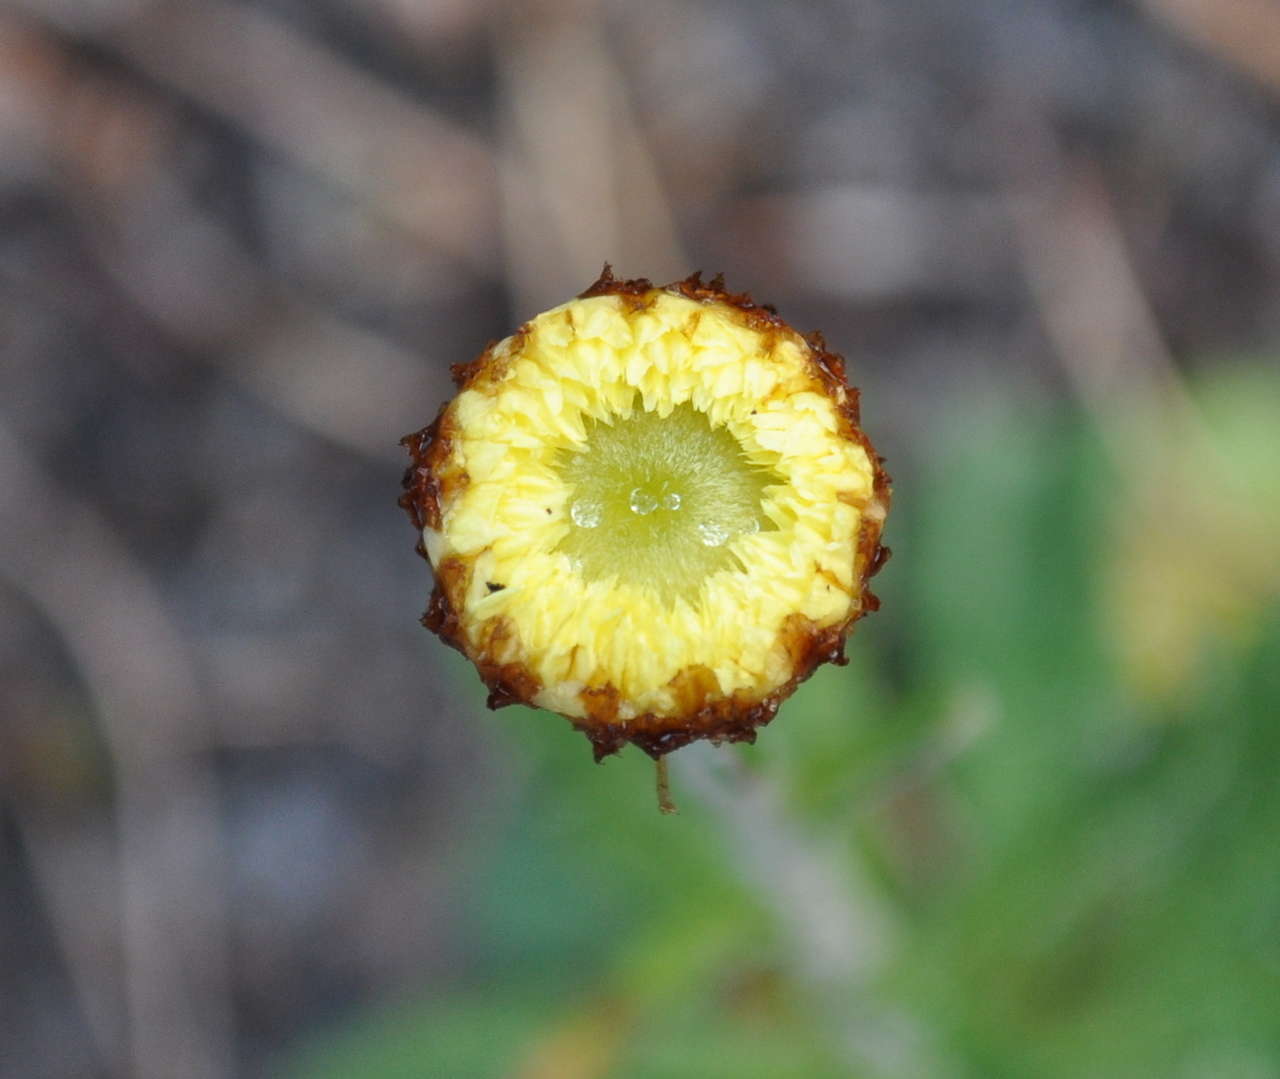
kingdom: Plantae
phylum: Tracheophyta
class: Magnoliopsida
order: Asterales
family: Asteraceae
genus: Coronidium
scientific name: Coronidium scorpioides
